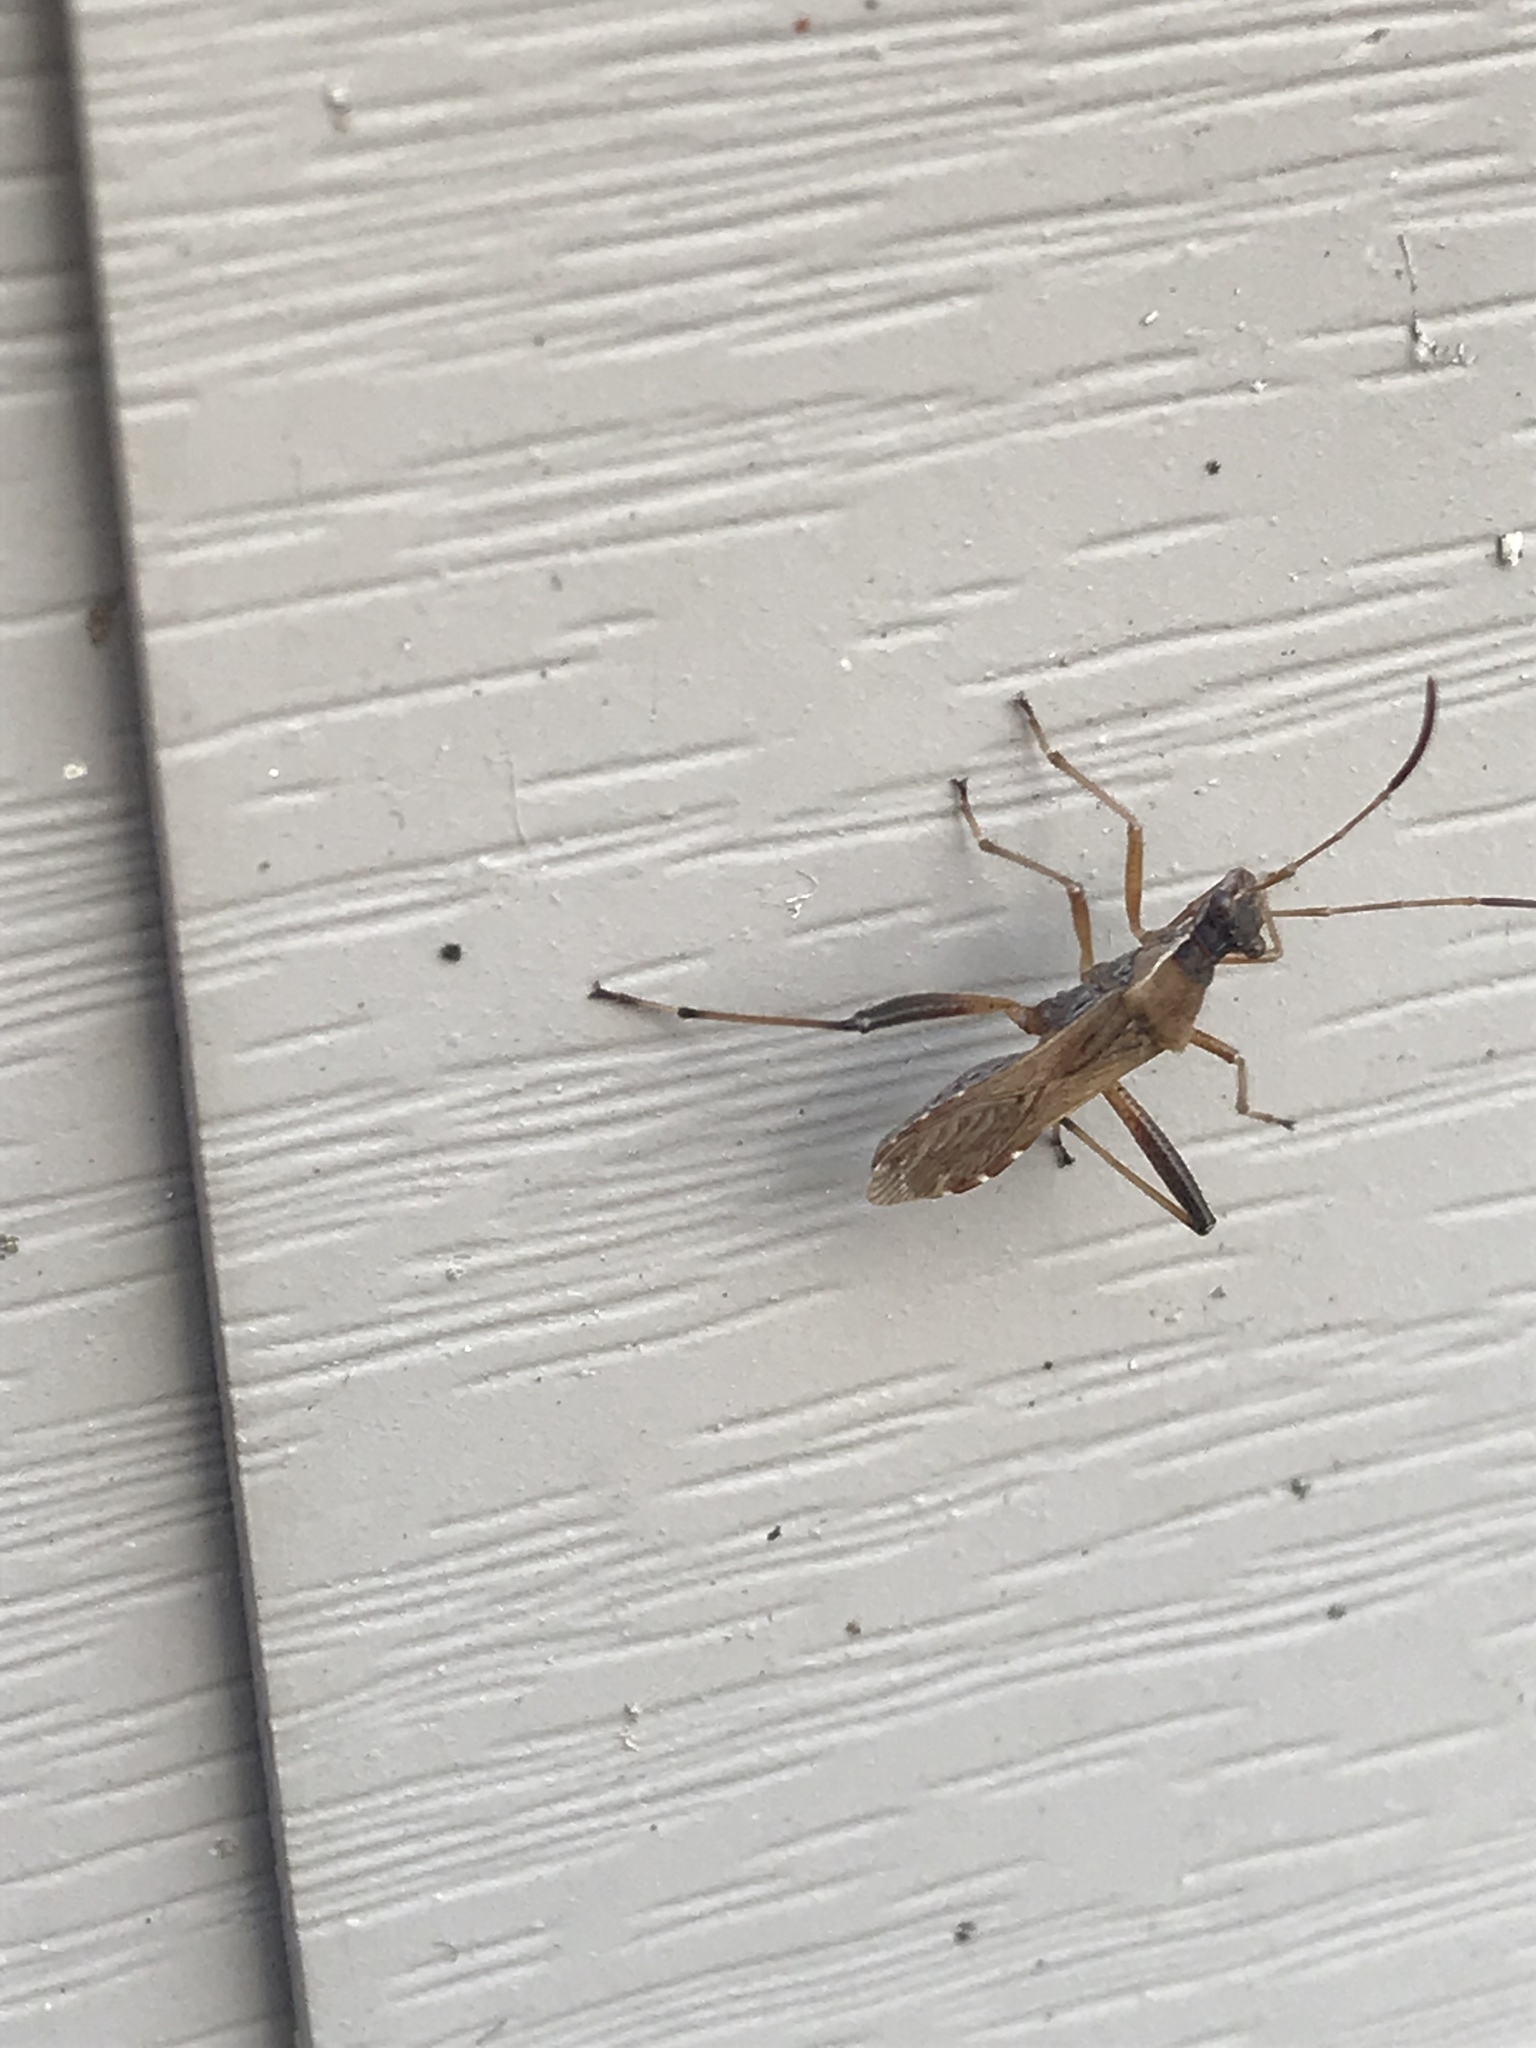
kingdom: Animalia
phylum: Arthropoda
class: Insecta
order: Hemiptera
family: Alydidae
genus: Alydus
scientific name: Alydus pilosulus
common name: Broad-headed bug
